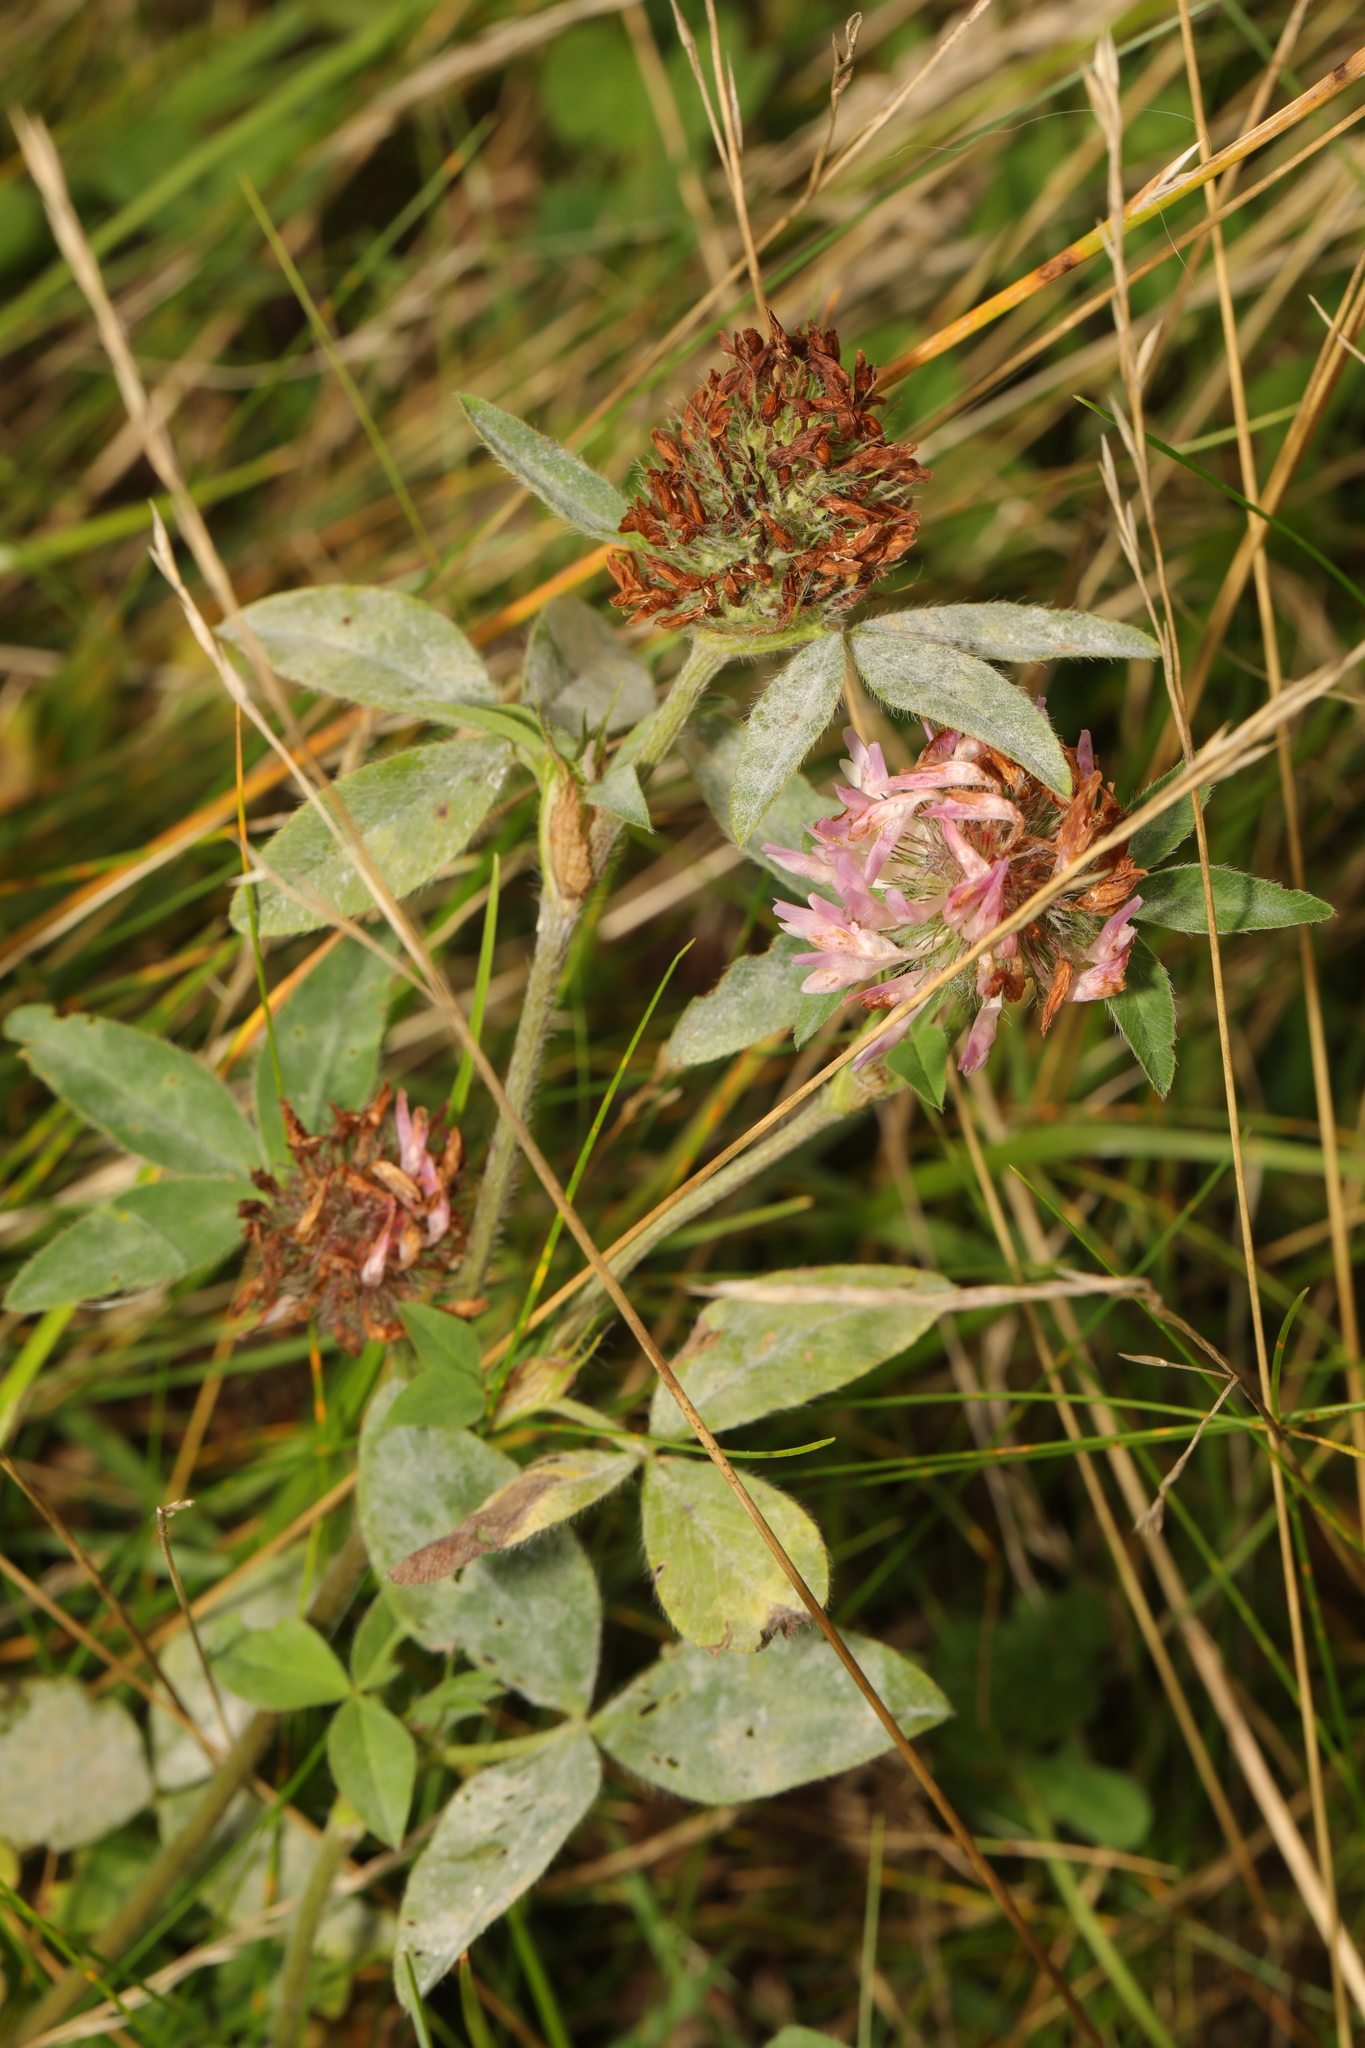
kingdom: Plantae
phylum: Tracheophyta
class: Magnoliopsida
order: Fabales
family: Fabaceae
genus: Trifolium
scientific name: Trifolium medium
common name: Zigzag clover
